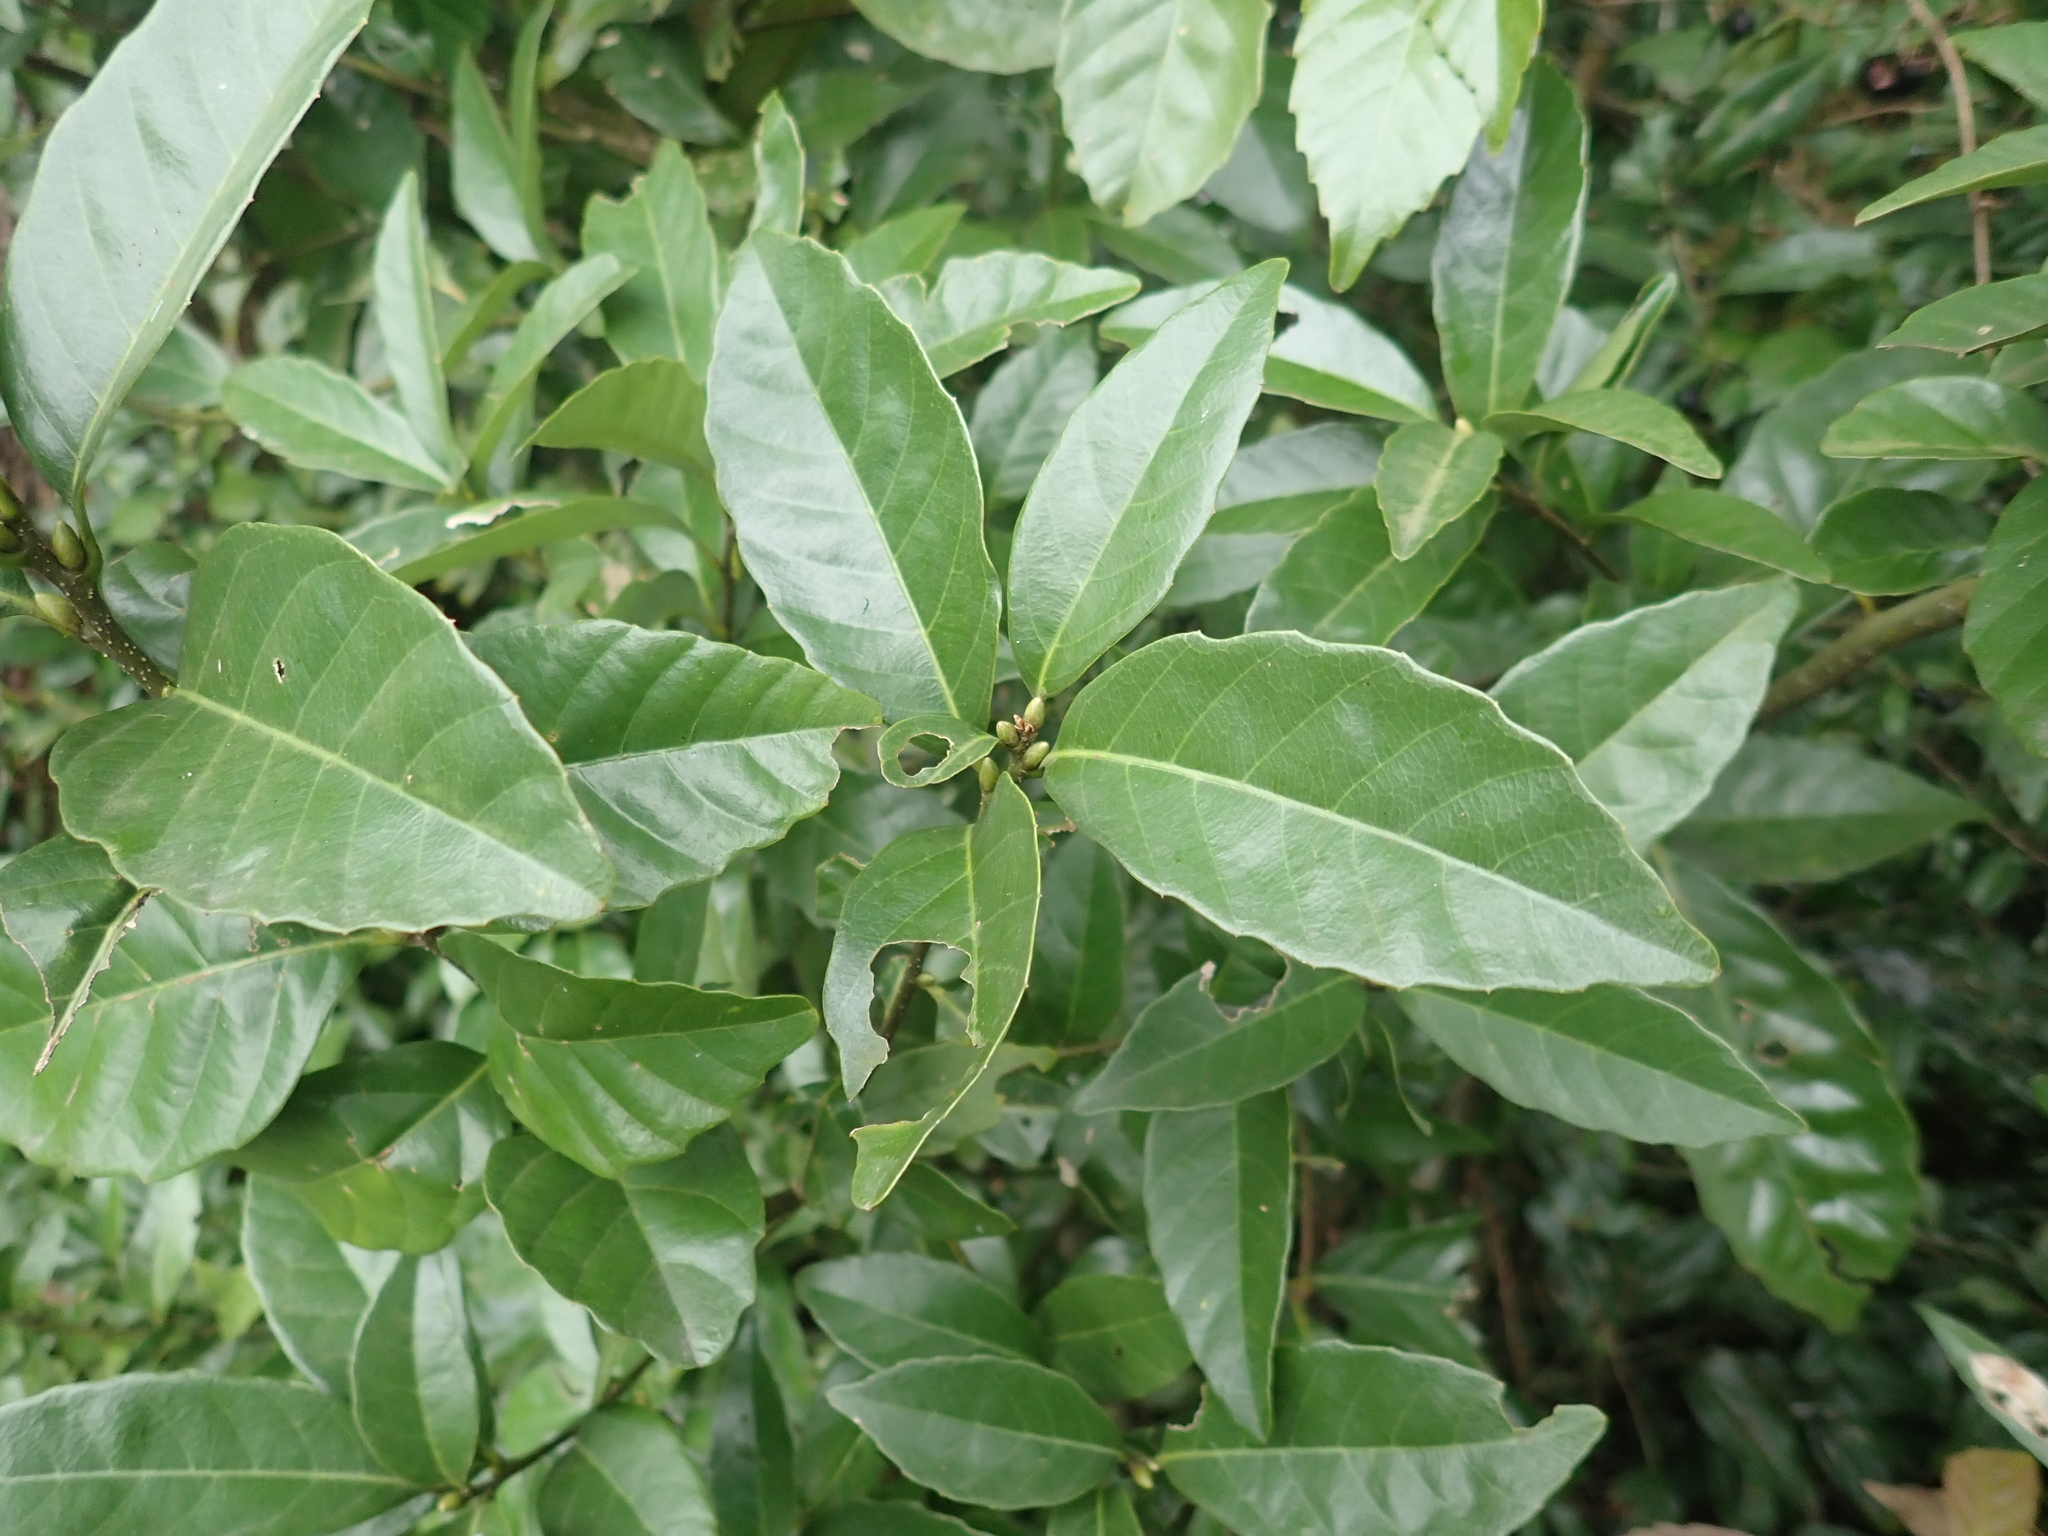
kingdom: Plantae
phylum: Tracheophyta
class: Magnoliopsida
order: Fagales
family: Fagaceae
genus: Quercus
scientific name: Quercus glauca
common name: Ring-cup oak
